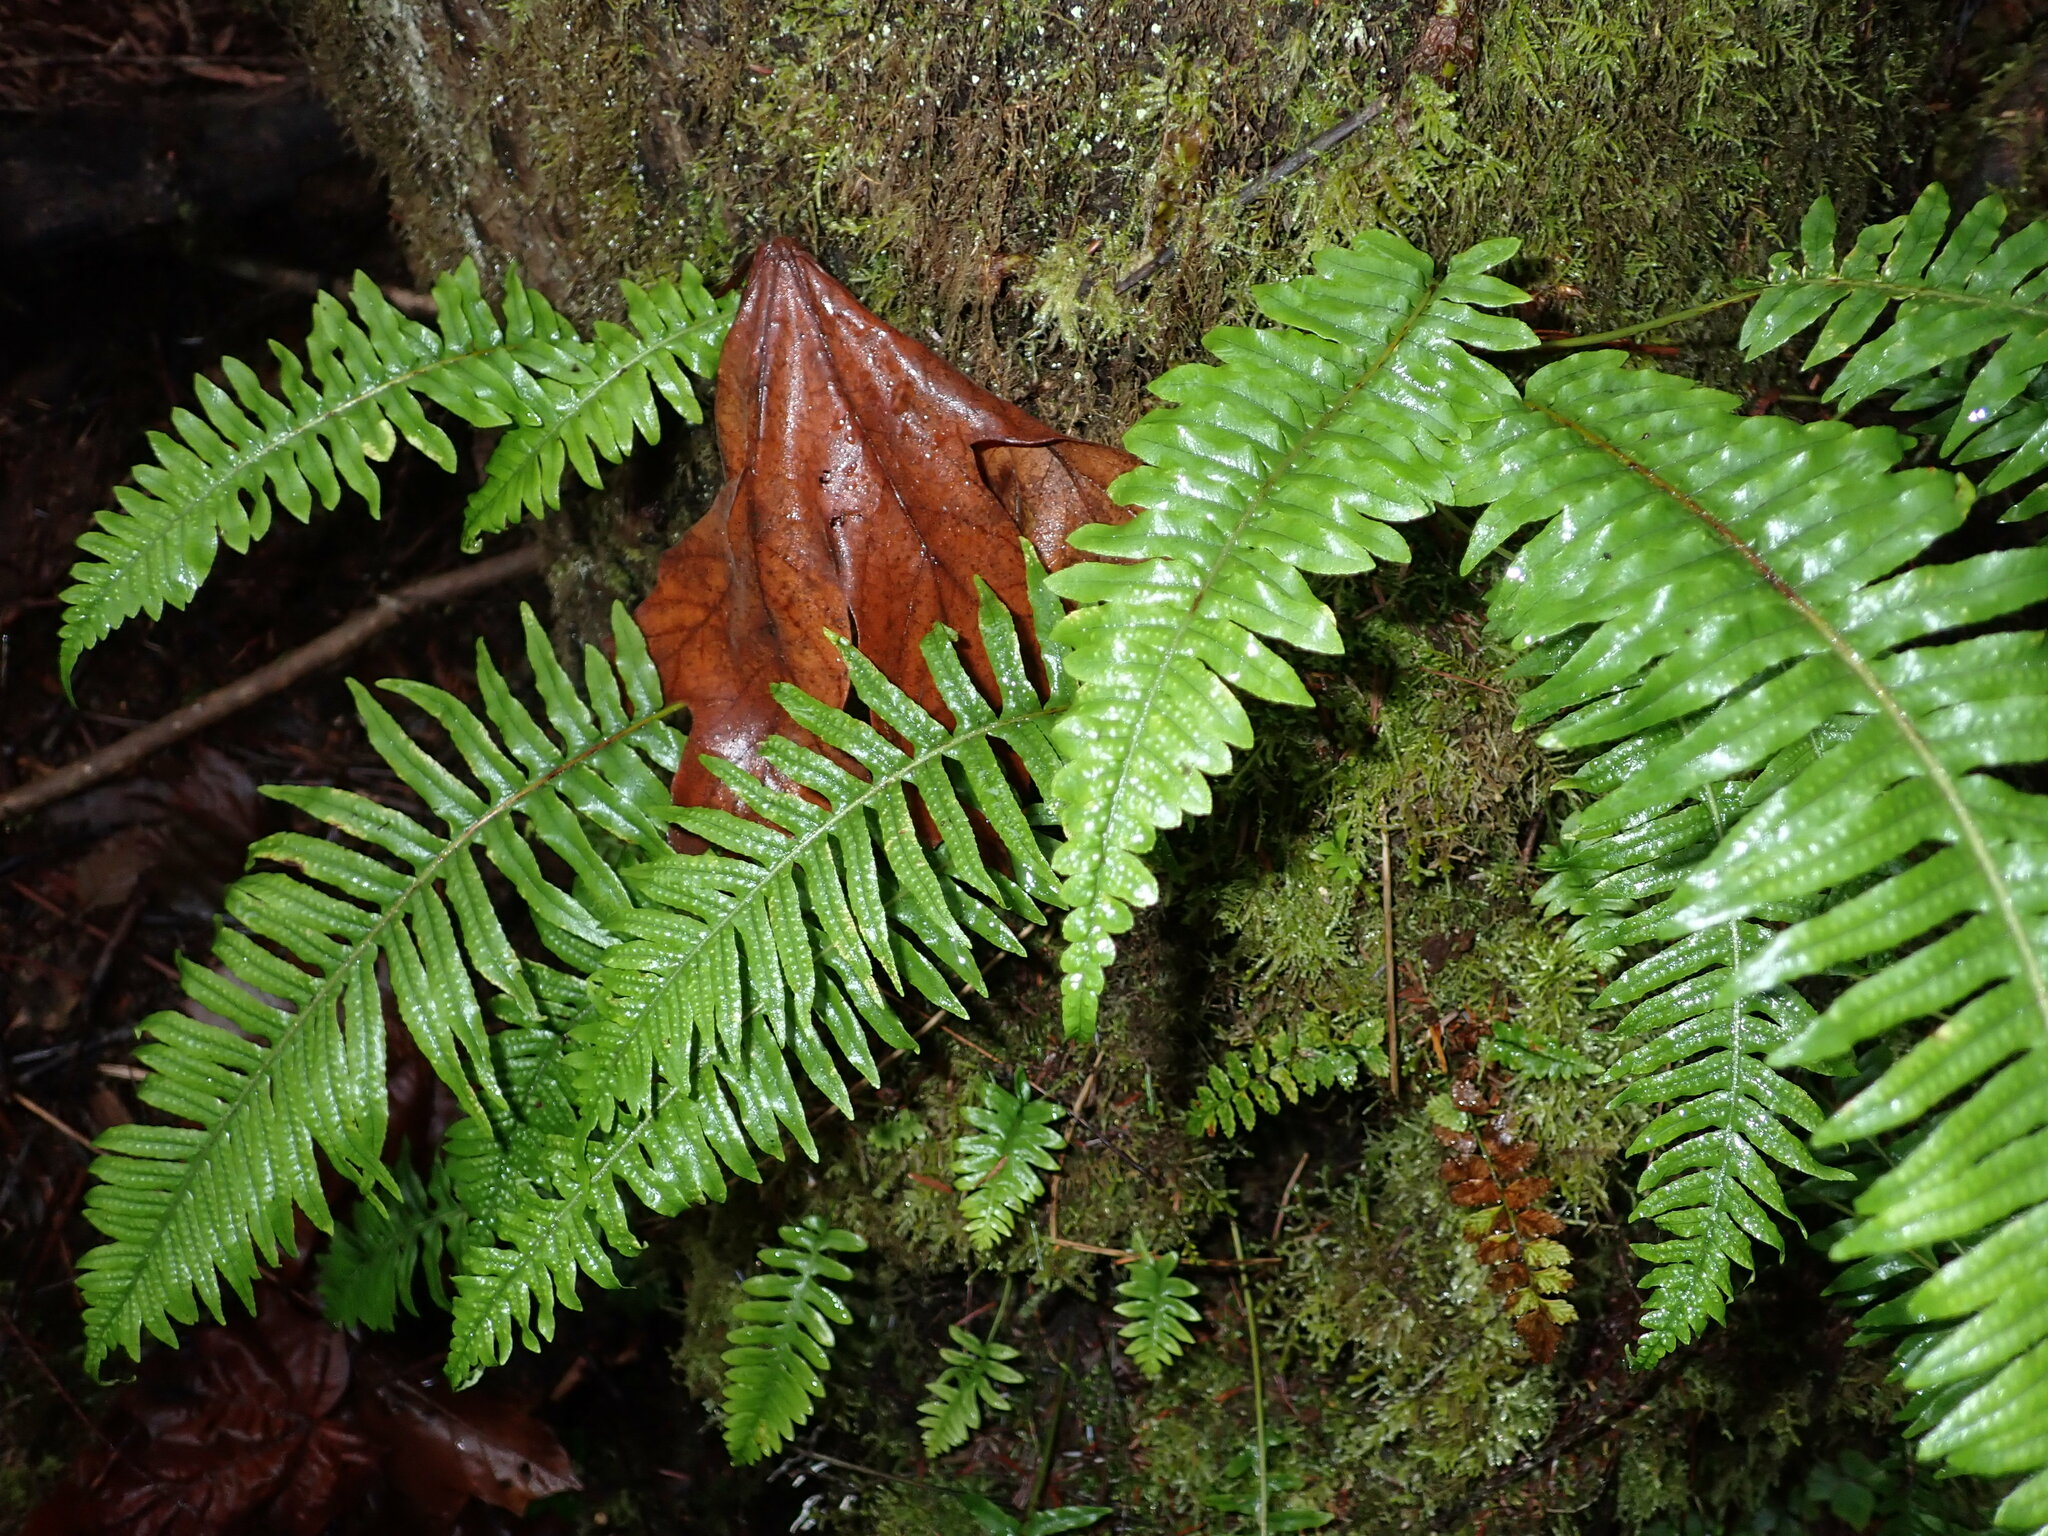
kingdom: Plantae
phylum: Tracheophyta
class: Polypodiopsida
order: Polypodiales
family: Polypodiaceae
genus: Polypodium
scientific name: Polypodium glycyrrhiza
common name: Licorice fern
